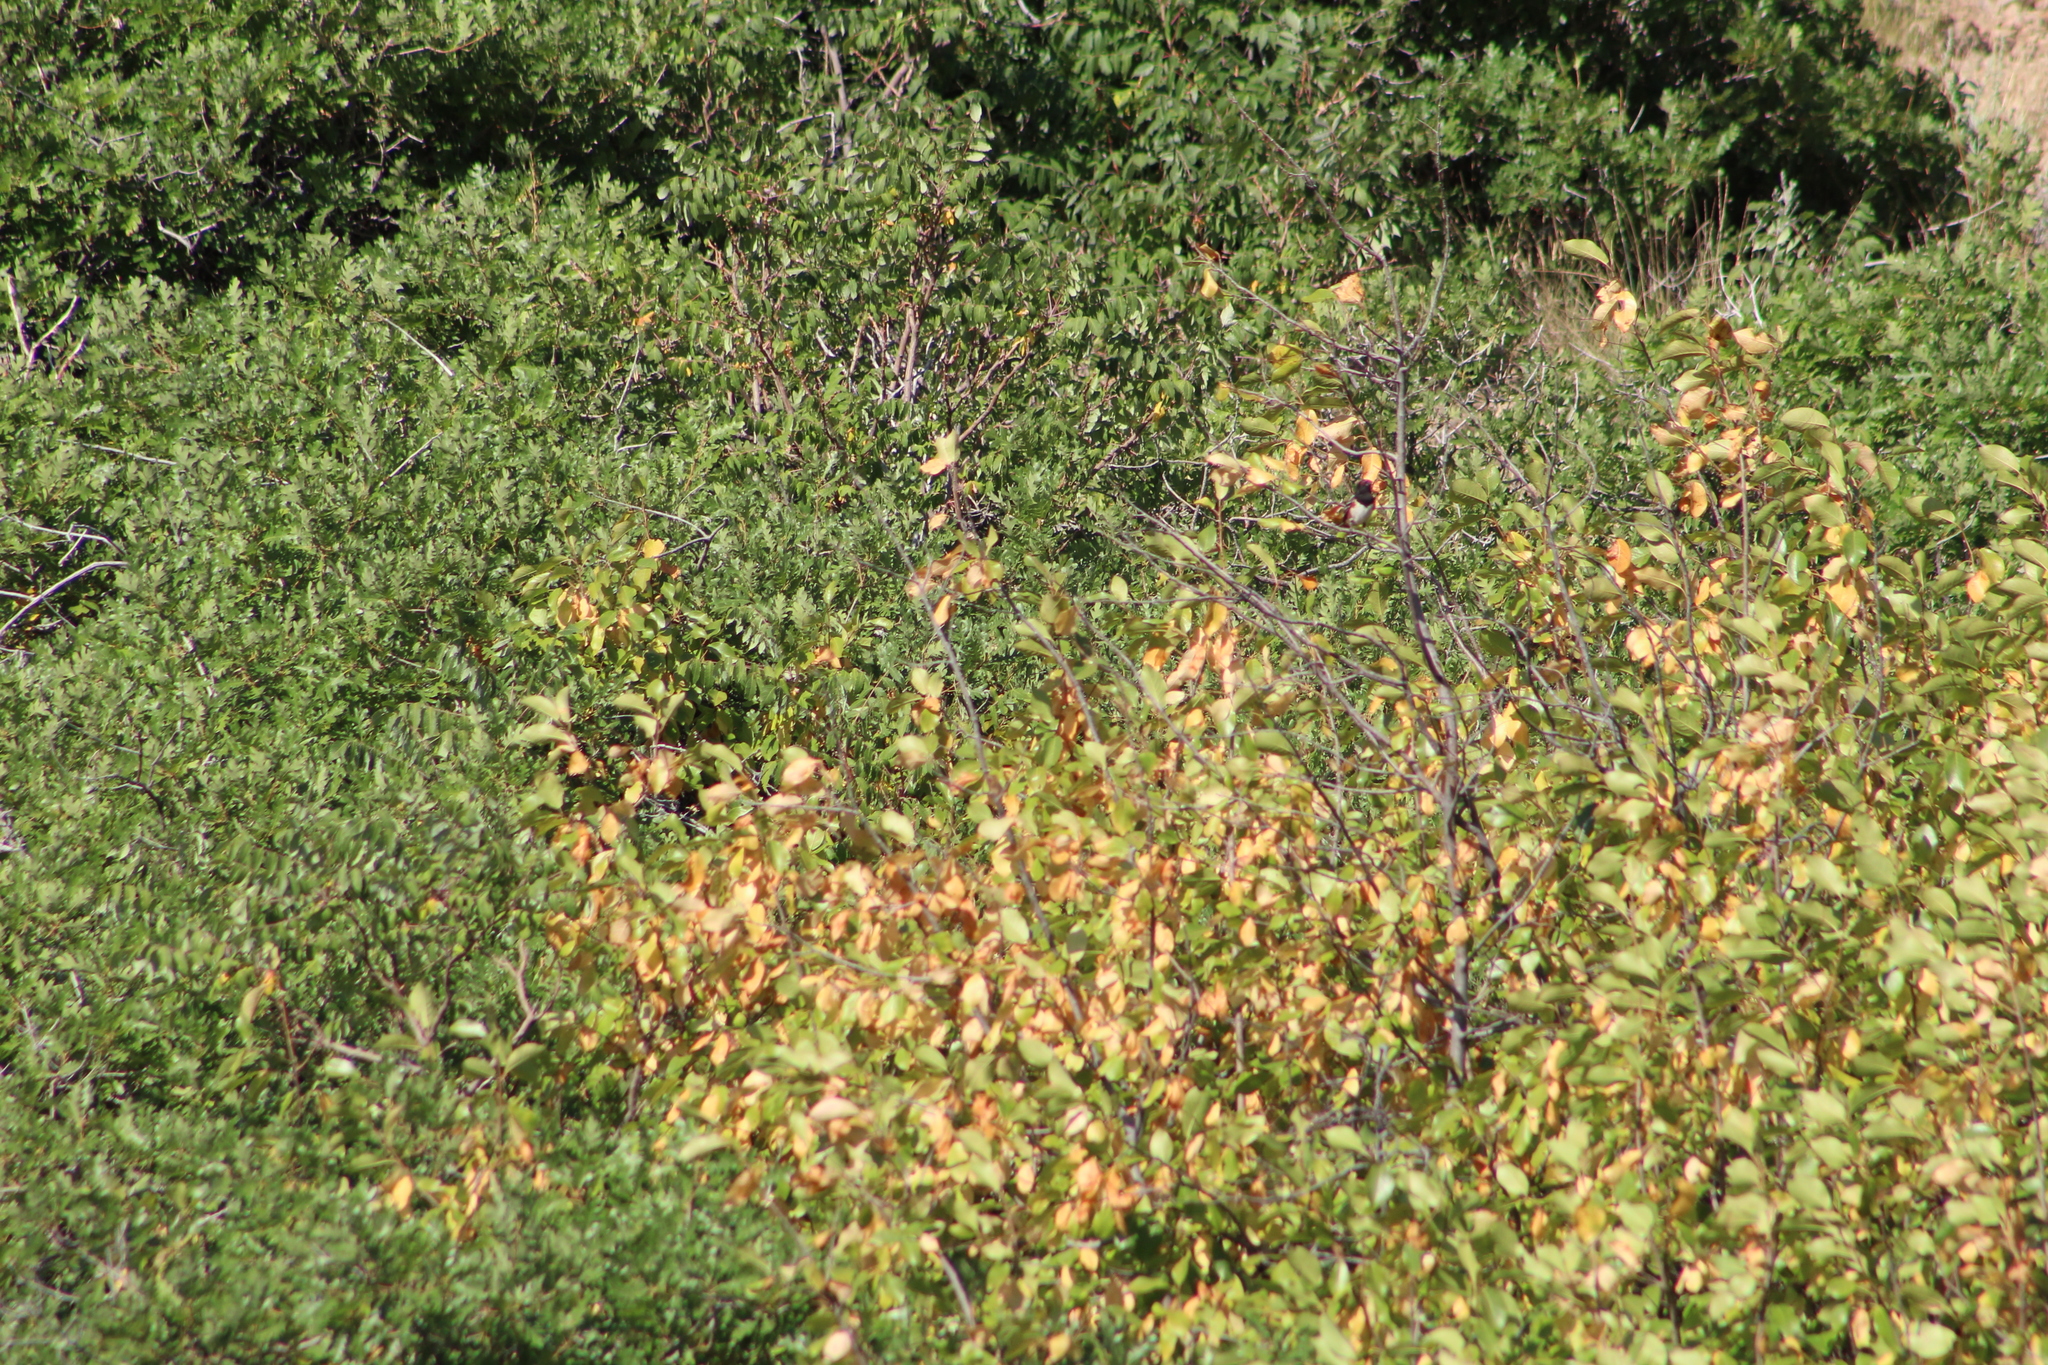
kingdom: Animalia
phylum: Chordata
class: Aves
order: Passeriformes
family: Passerellidae
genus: Pipilo
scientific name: Pipilo maculatus
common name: Spotted towhee
